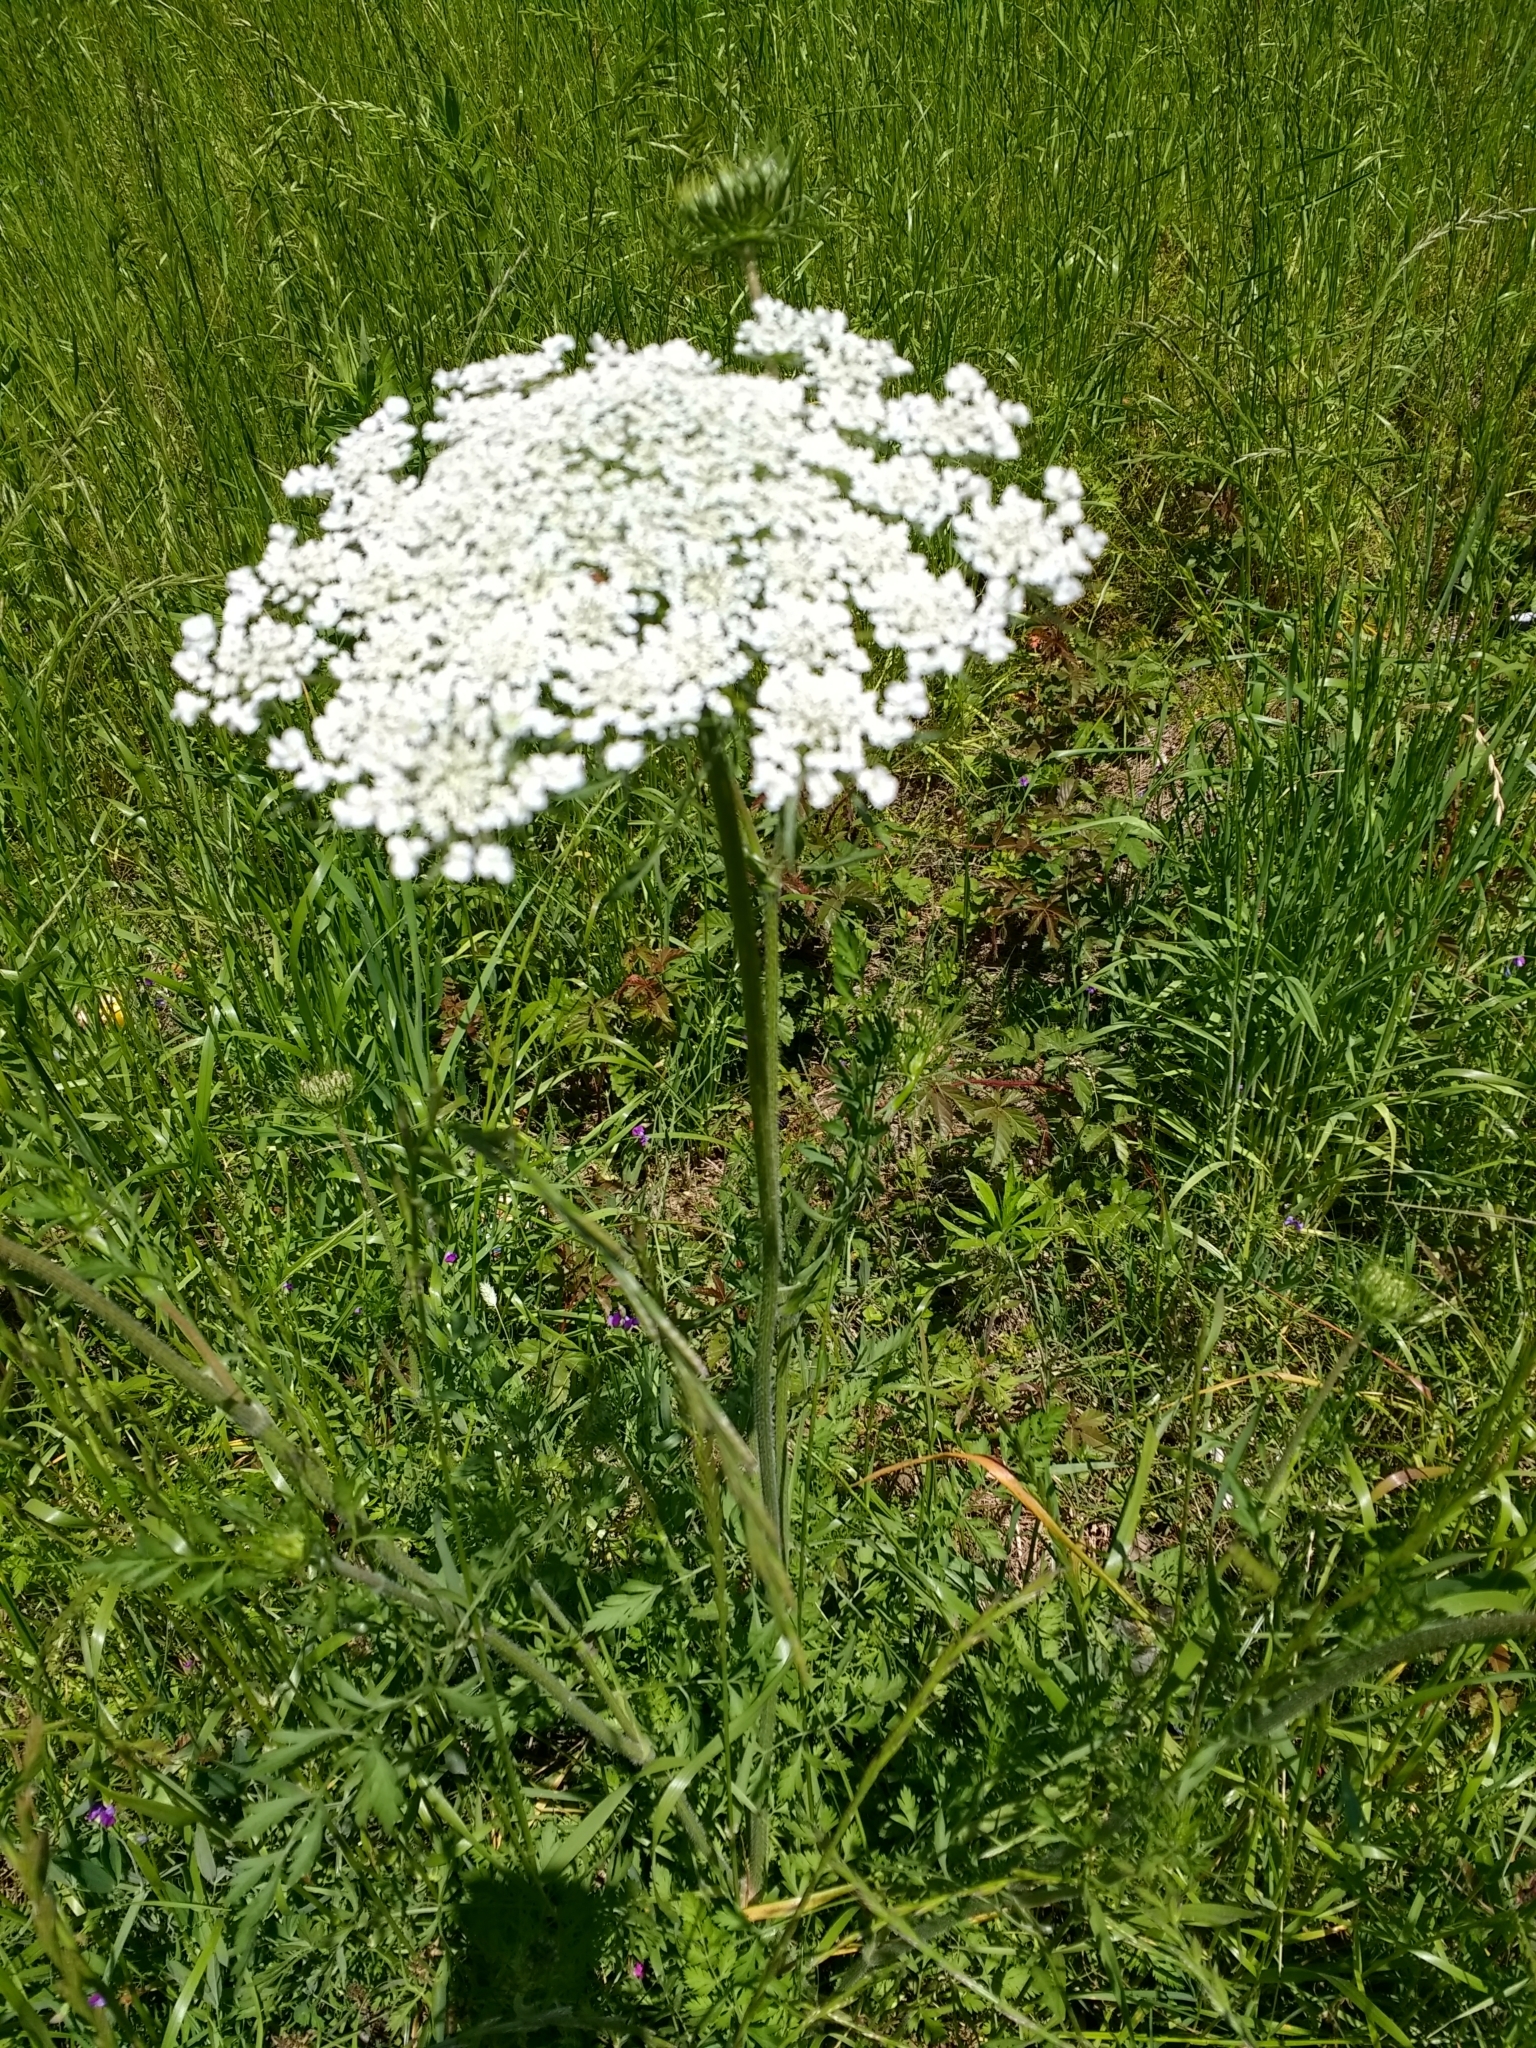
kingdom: Plantae
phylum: Tracheophyta
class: Magnoliopsida
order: Apiales
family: Apiaceae
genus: Daucus
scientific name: Daucus carota
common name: Wild carrot
